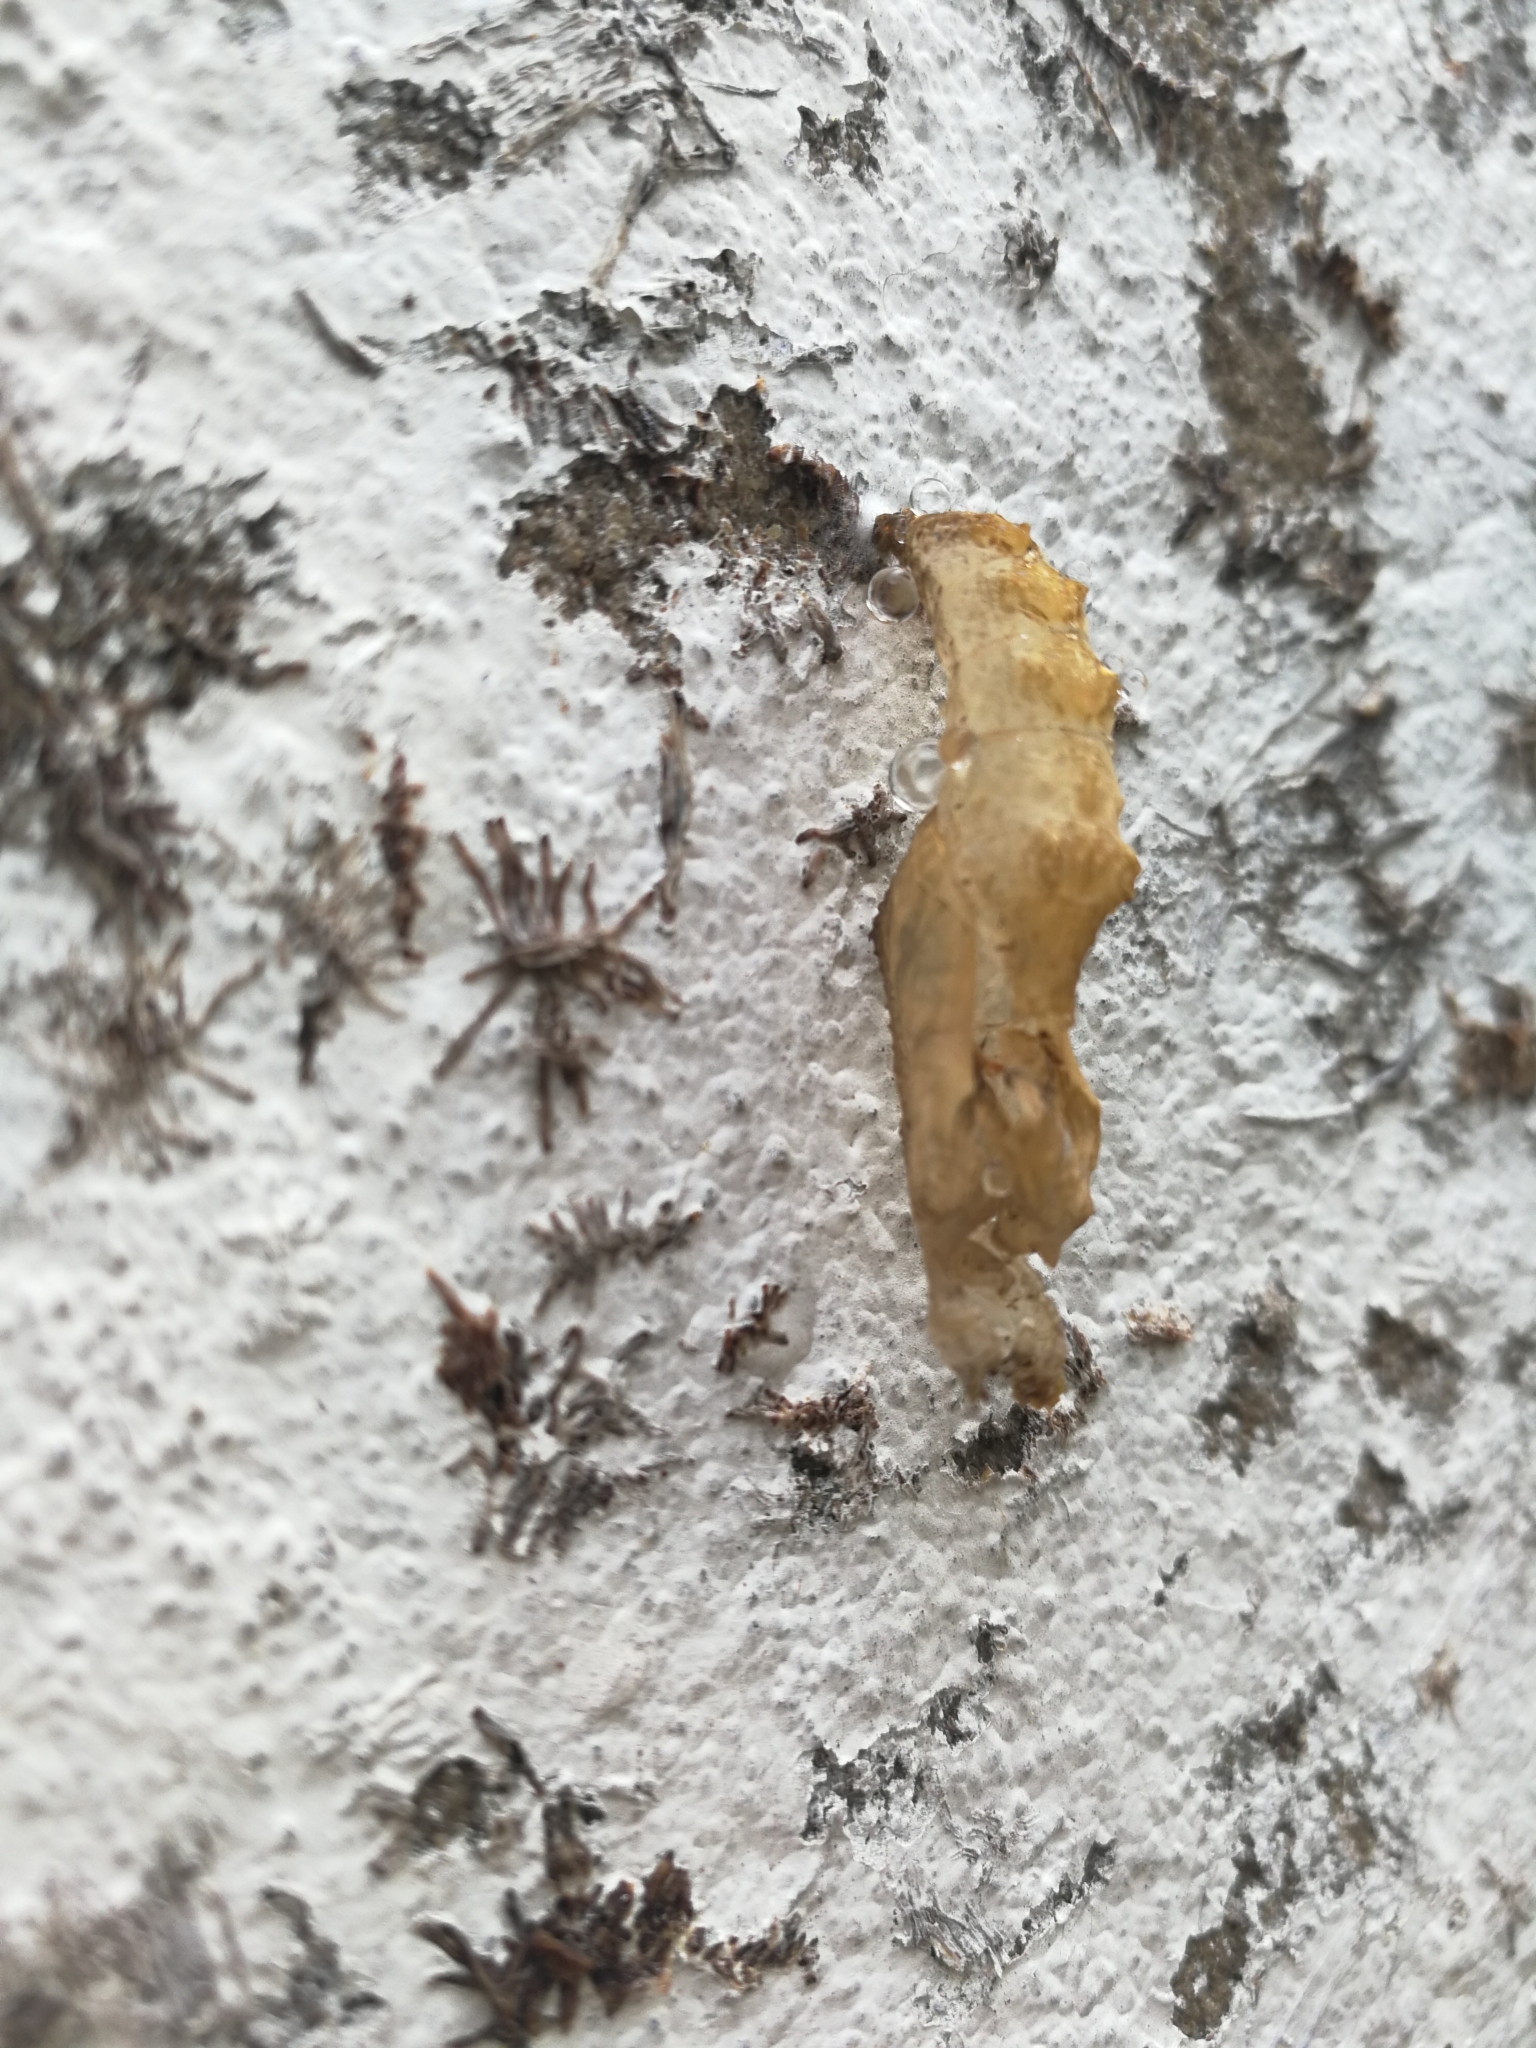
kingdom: Animalia
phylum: Arthropoda
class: Insecta
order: Lepidoptera
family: Nymphalidae
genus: Dione
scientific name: Dione vanillae
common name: Gulf fritillary
